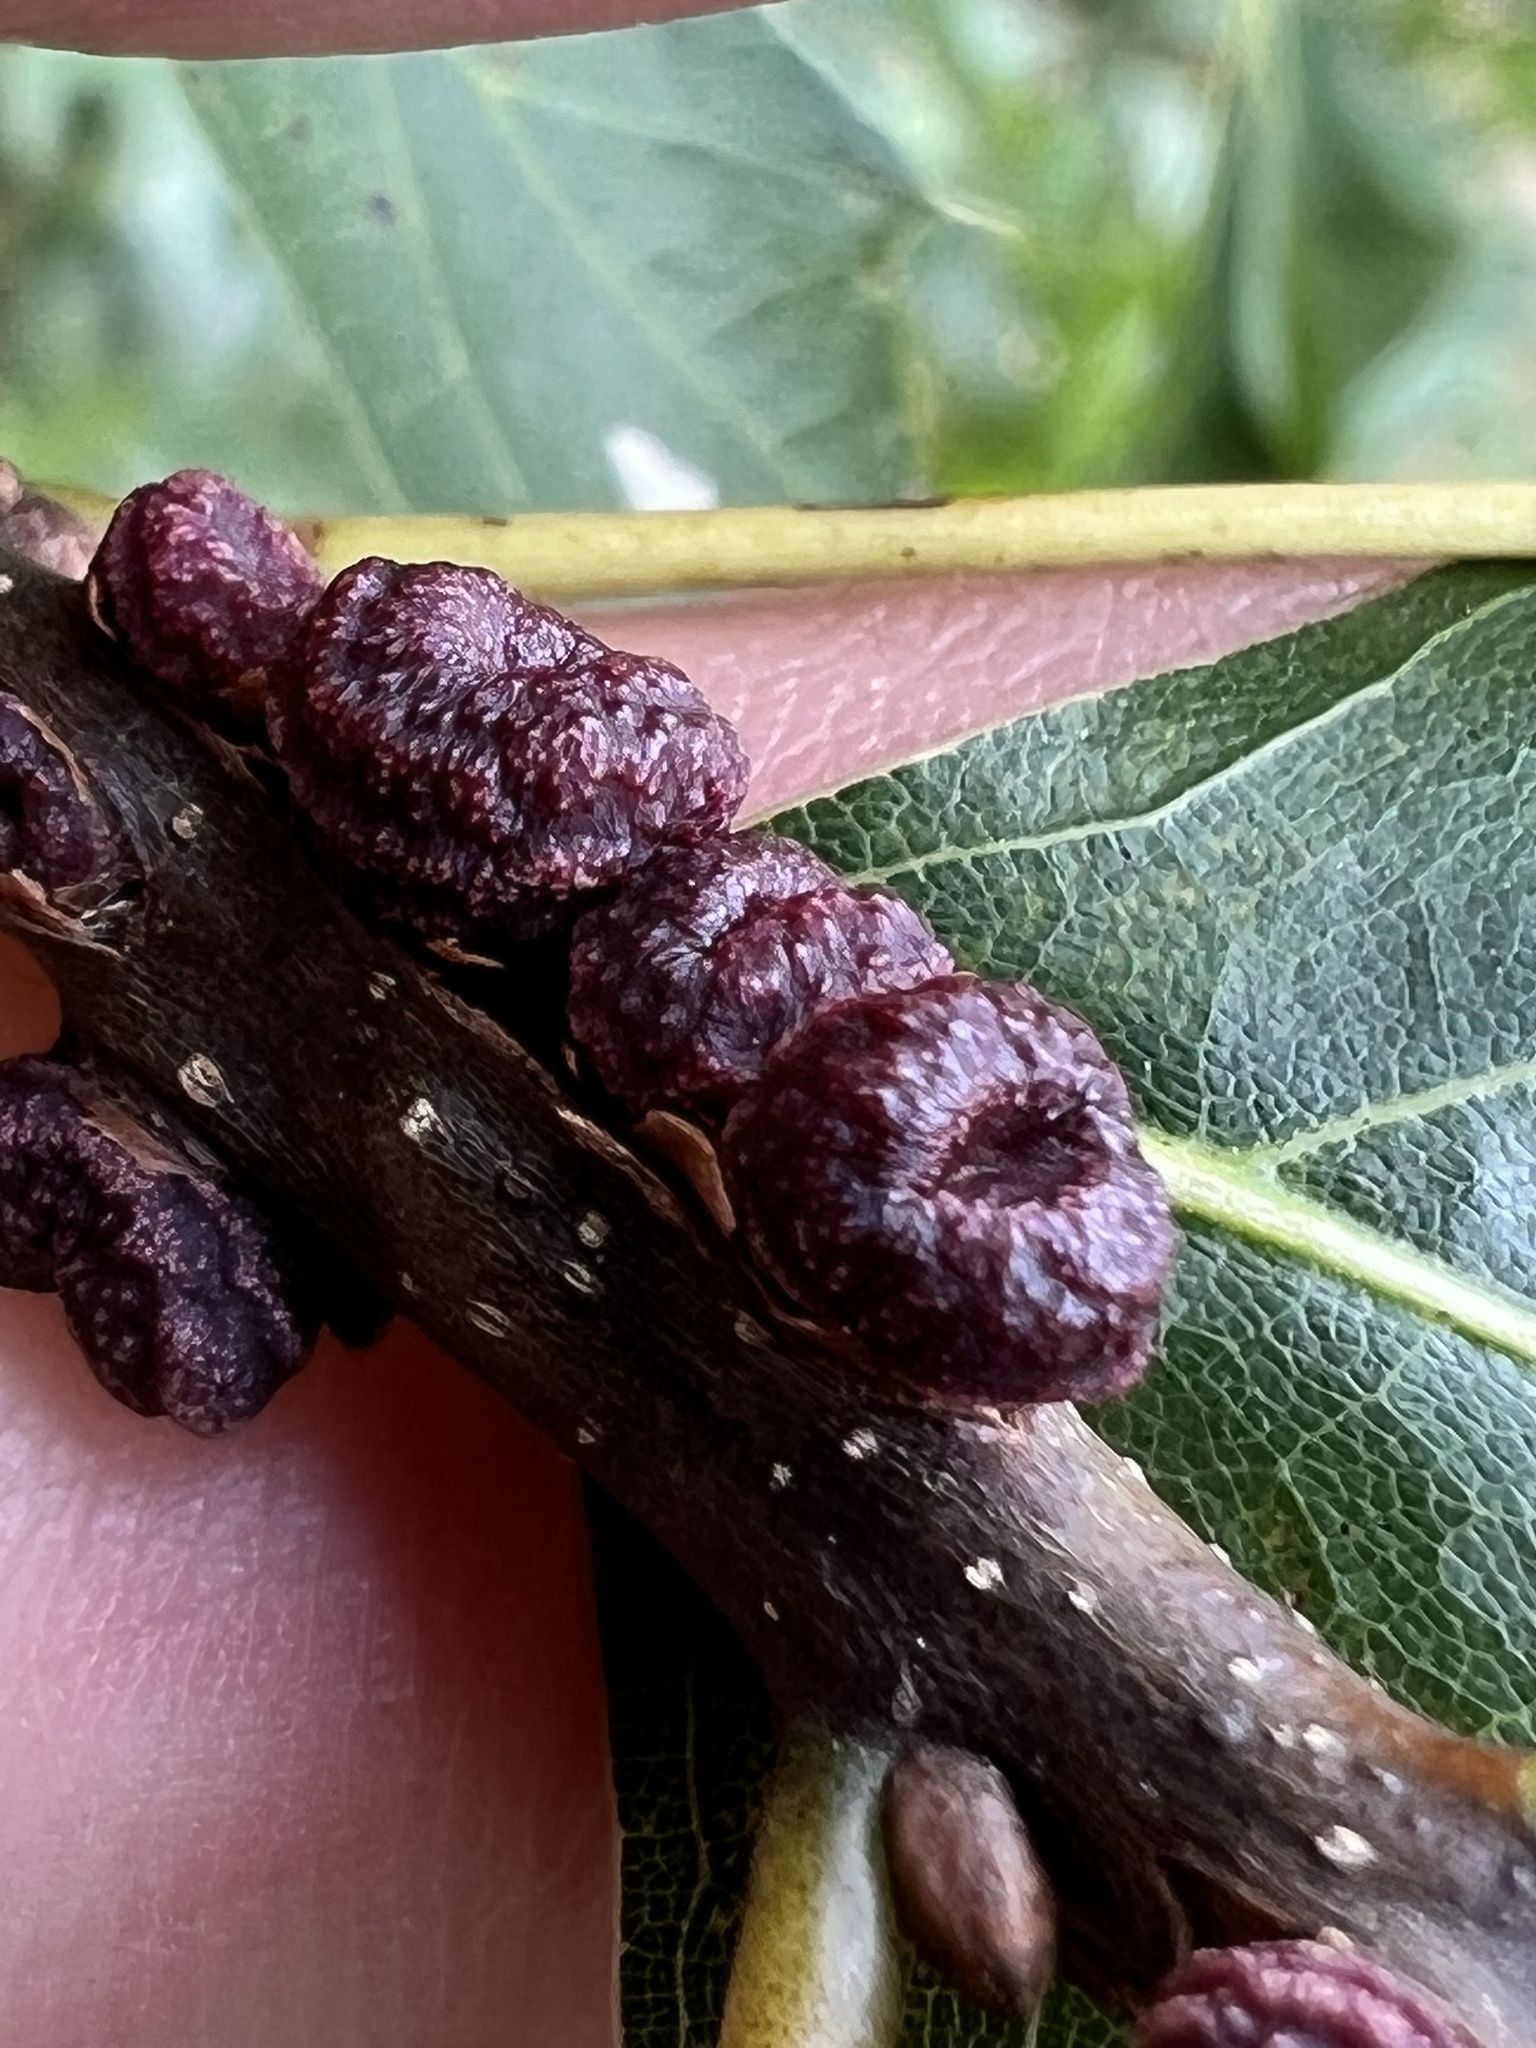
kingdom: Animalia
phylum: Arthropoda
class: Insecta
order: Hymenoptera
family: Cynipidae
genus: Kokkocynips
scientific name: Kokkocynips difficilis
